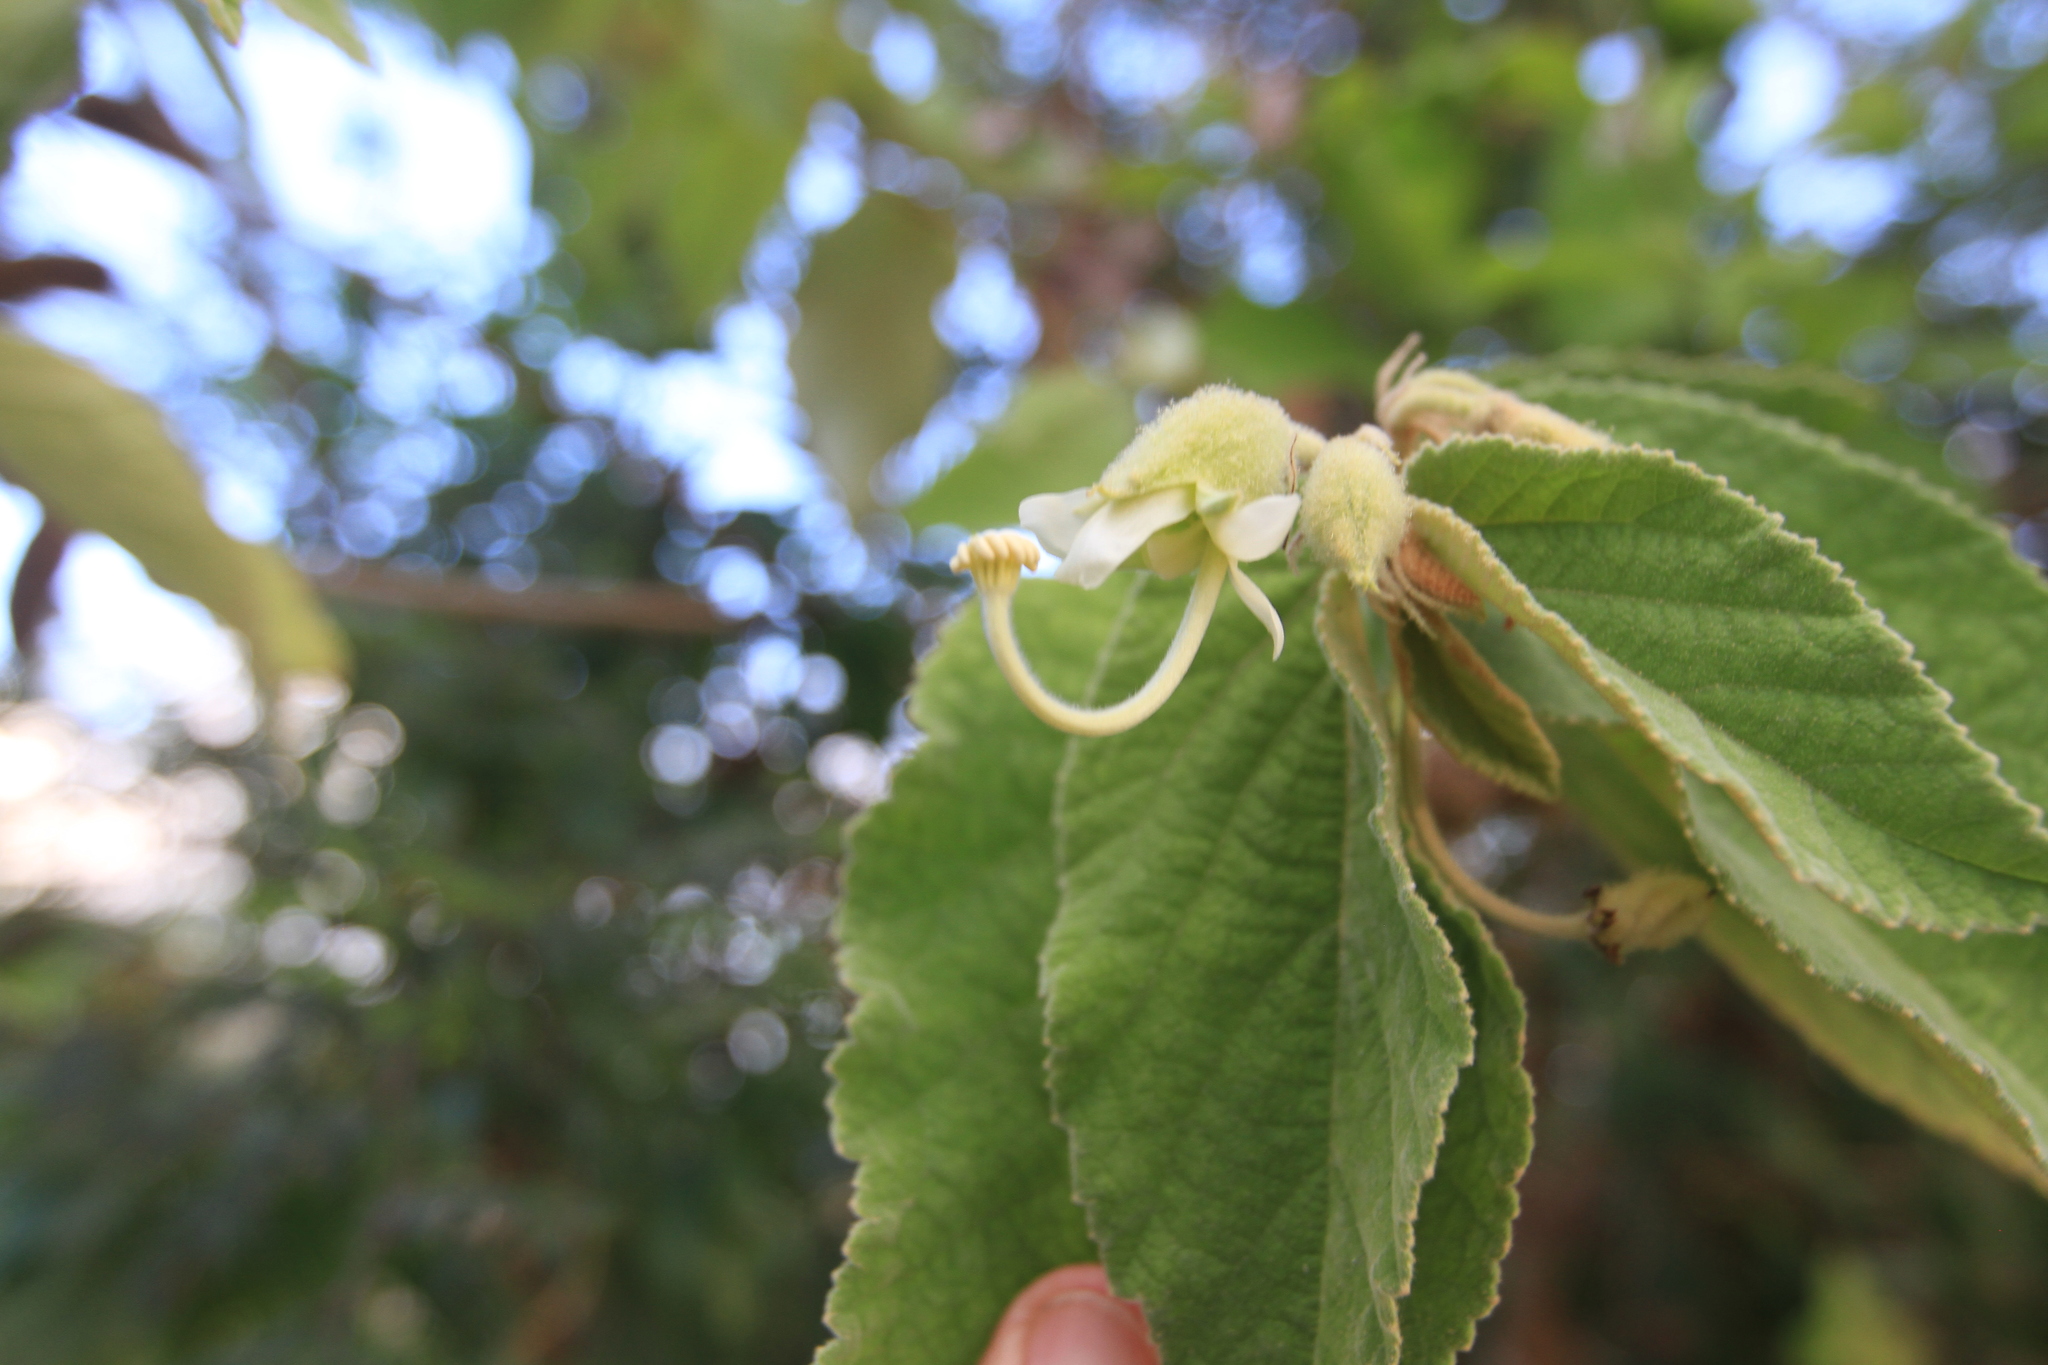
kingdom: Plantae
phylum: Tracheophyta
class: Magnoliopsida
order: Malvales
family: Malvaceae
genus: Helicteres
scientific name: Helicteres jamaicensis
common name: Cowbush
